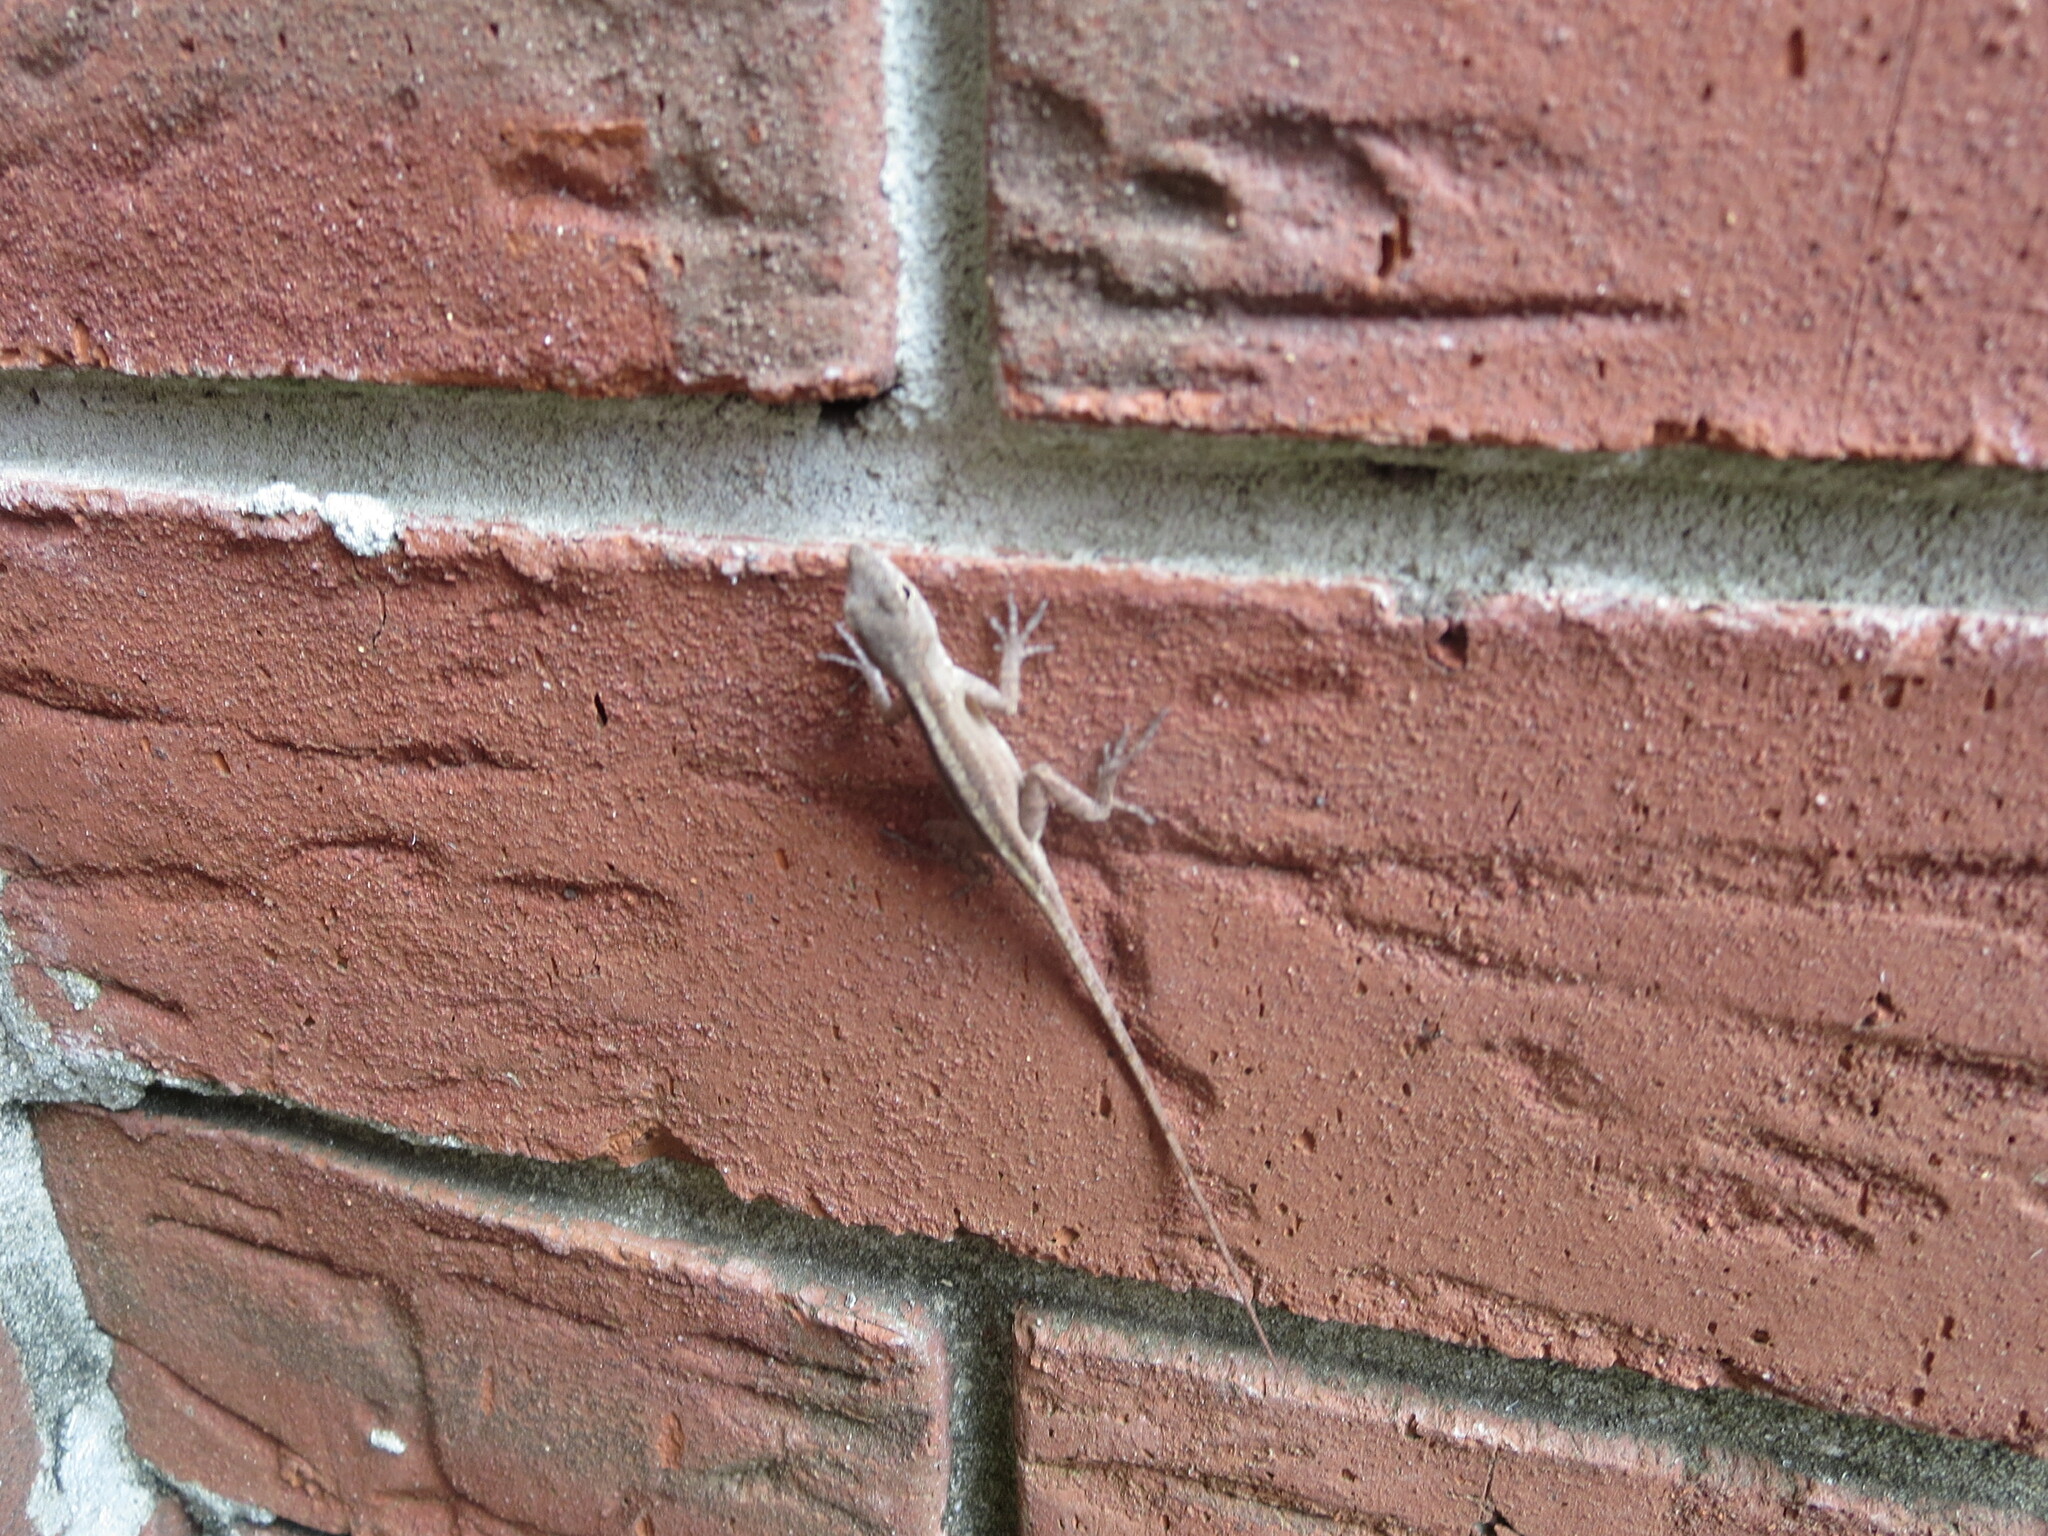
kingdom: Animalia
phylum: Chordata
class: Squamata
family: Dactyloidae
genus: Anolis
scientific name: Anolis sagrei
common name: Brown anole
